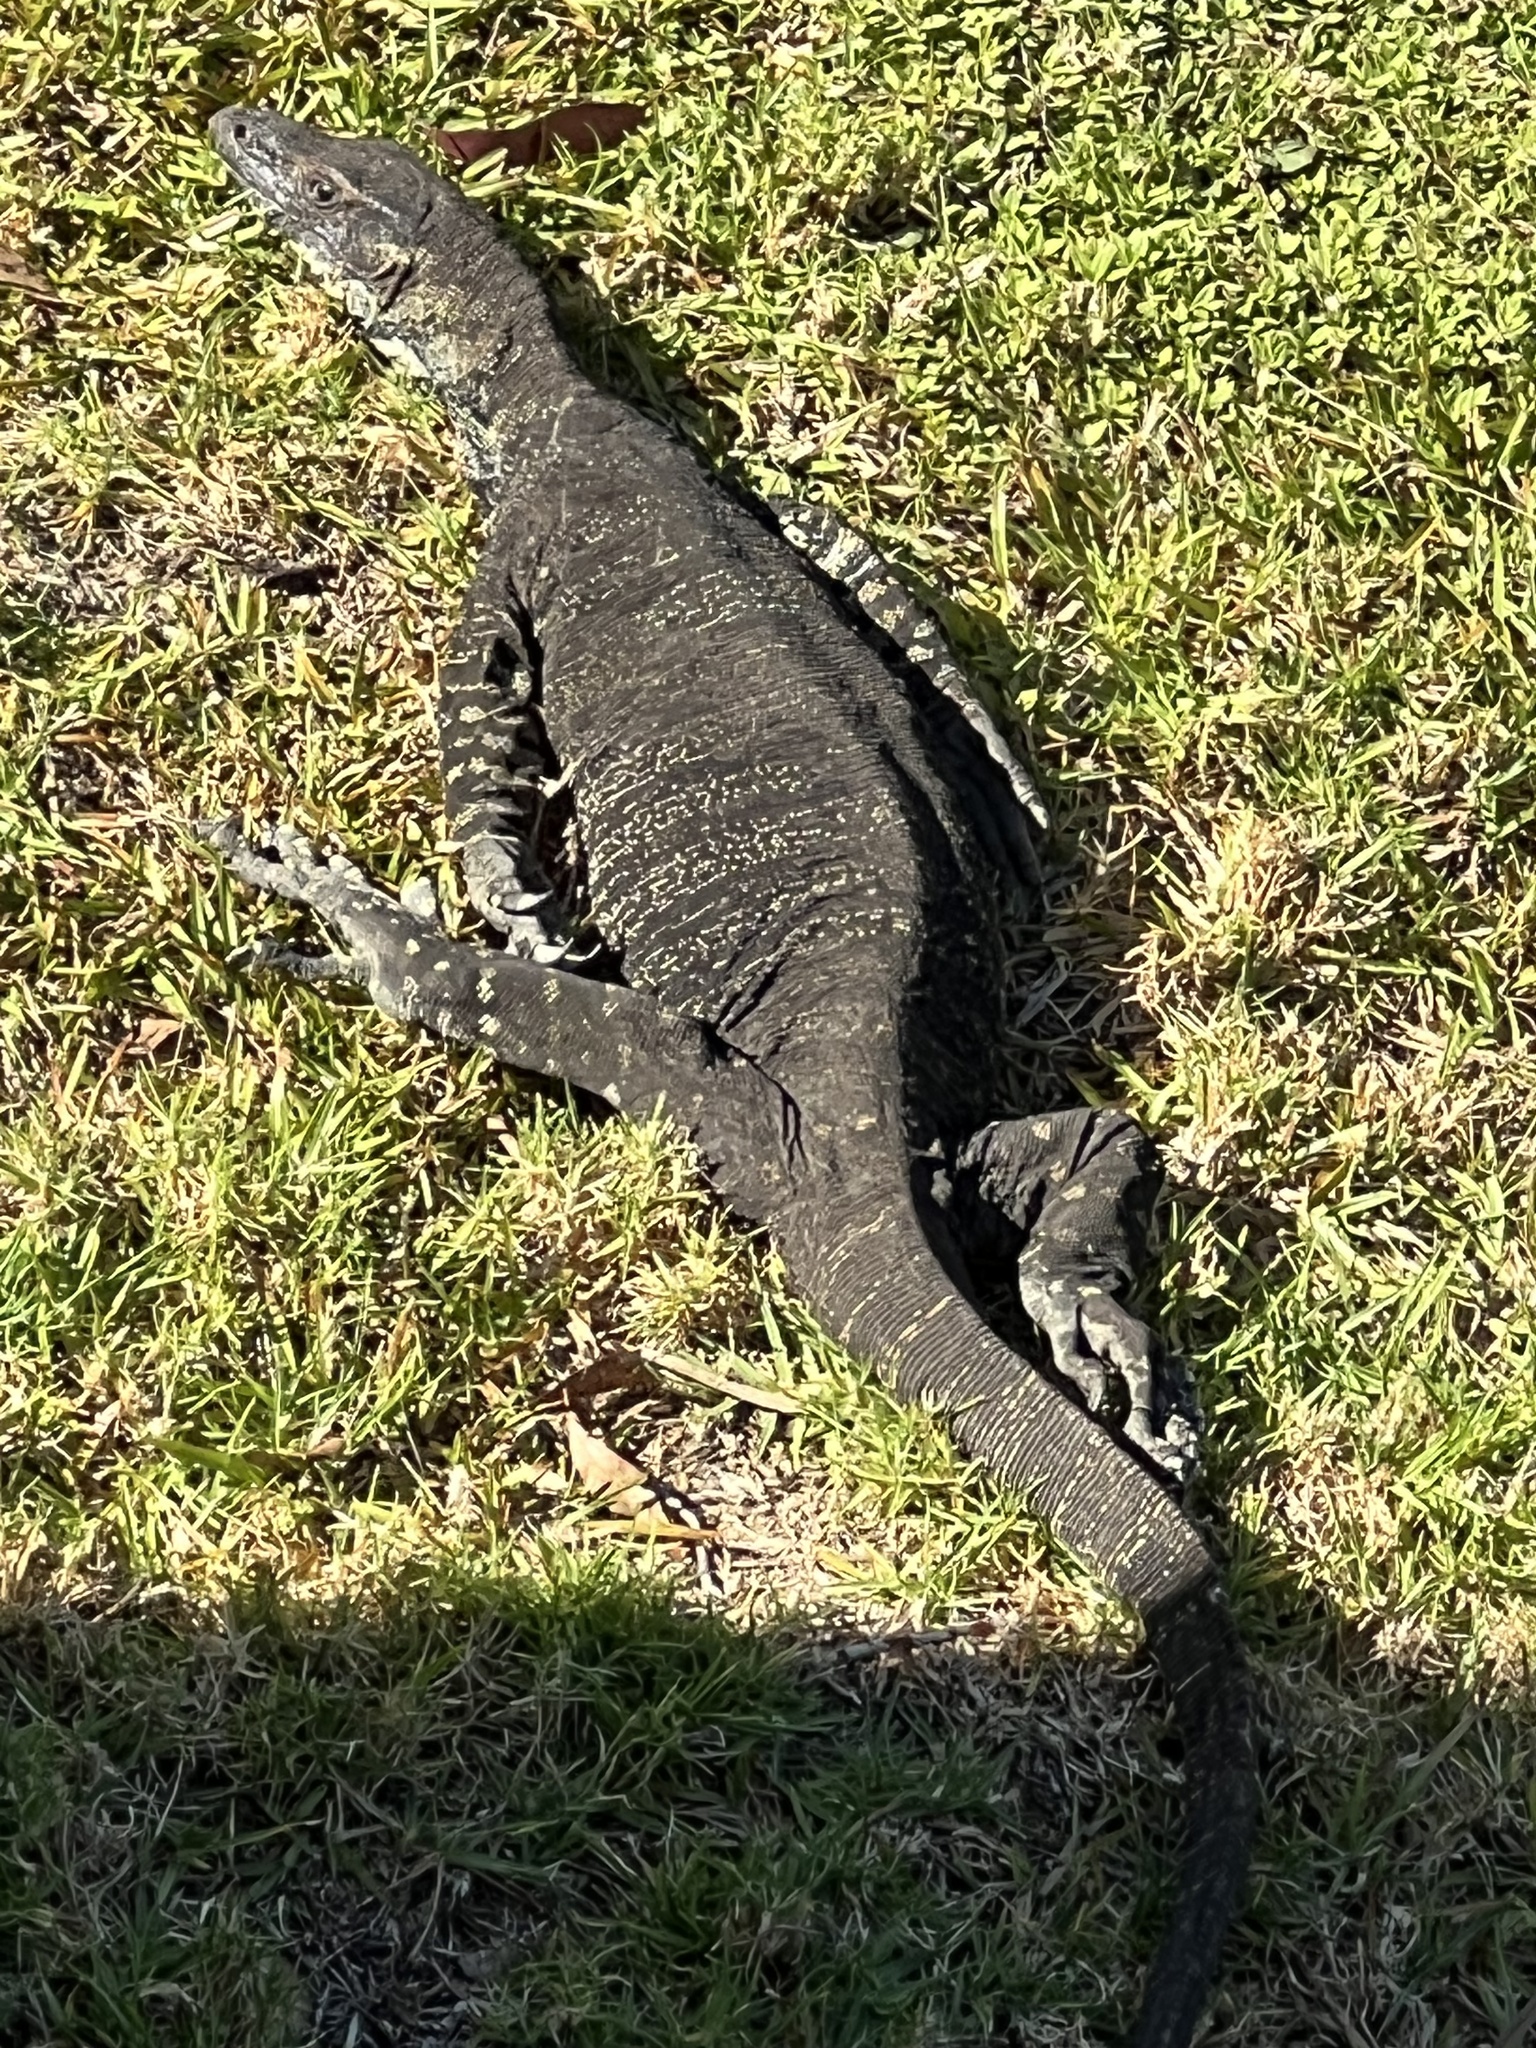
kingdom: Animalia
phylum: Chordata
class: Squamata
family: Varanidae
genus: Varanus
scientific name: Varanus varius
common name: Lace monitor
